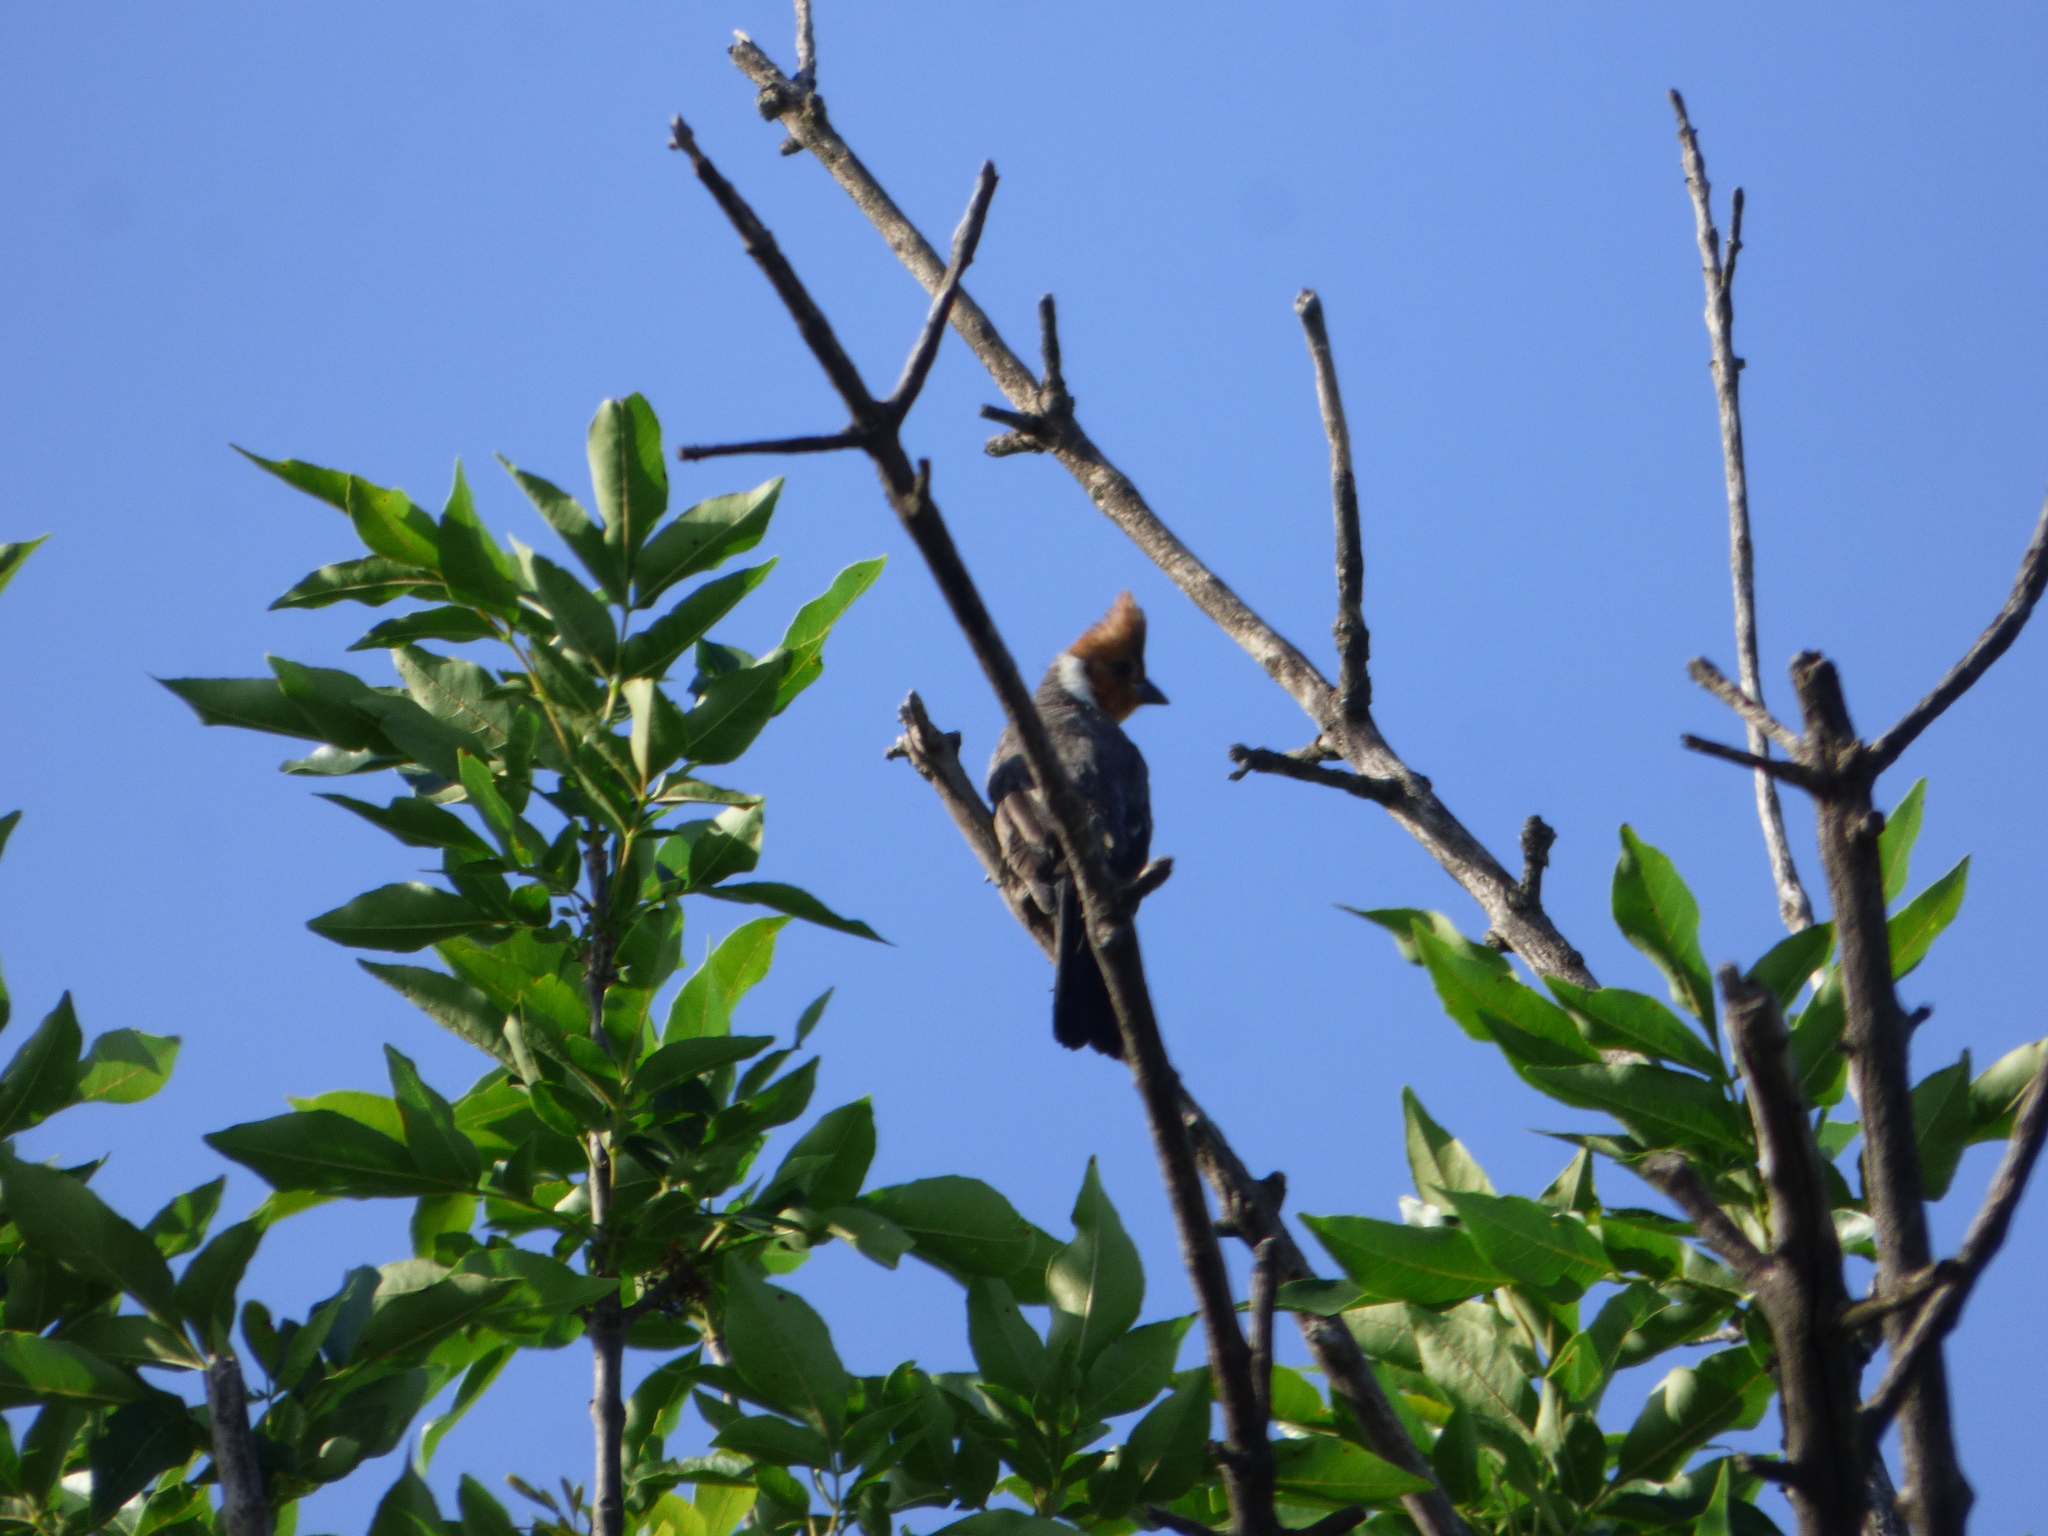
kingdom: Animalia
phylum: Chordata
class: Aves
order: Passeriformes
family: Thraupidae
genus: Paroaria
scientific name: Paroaria coronata
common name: Red-crested cardinal
